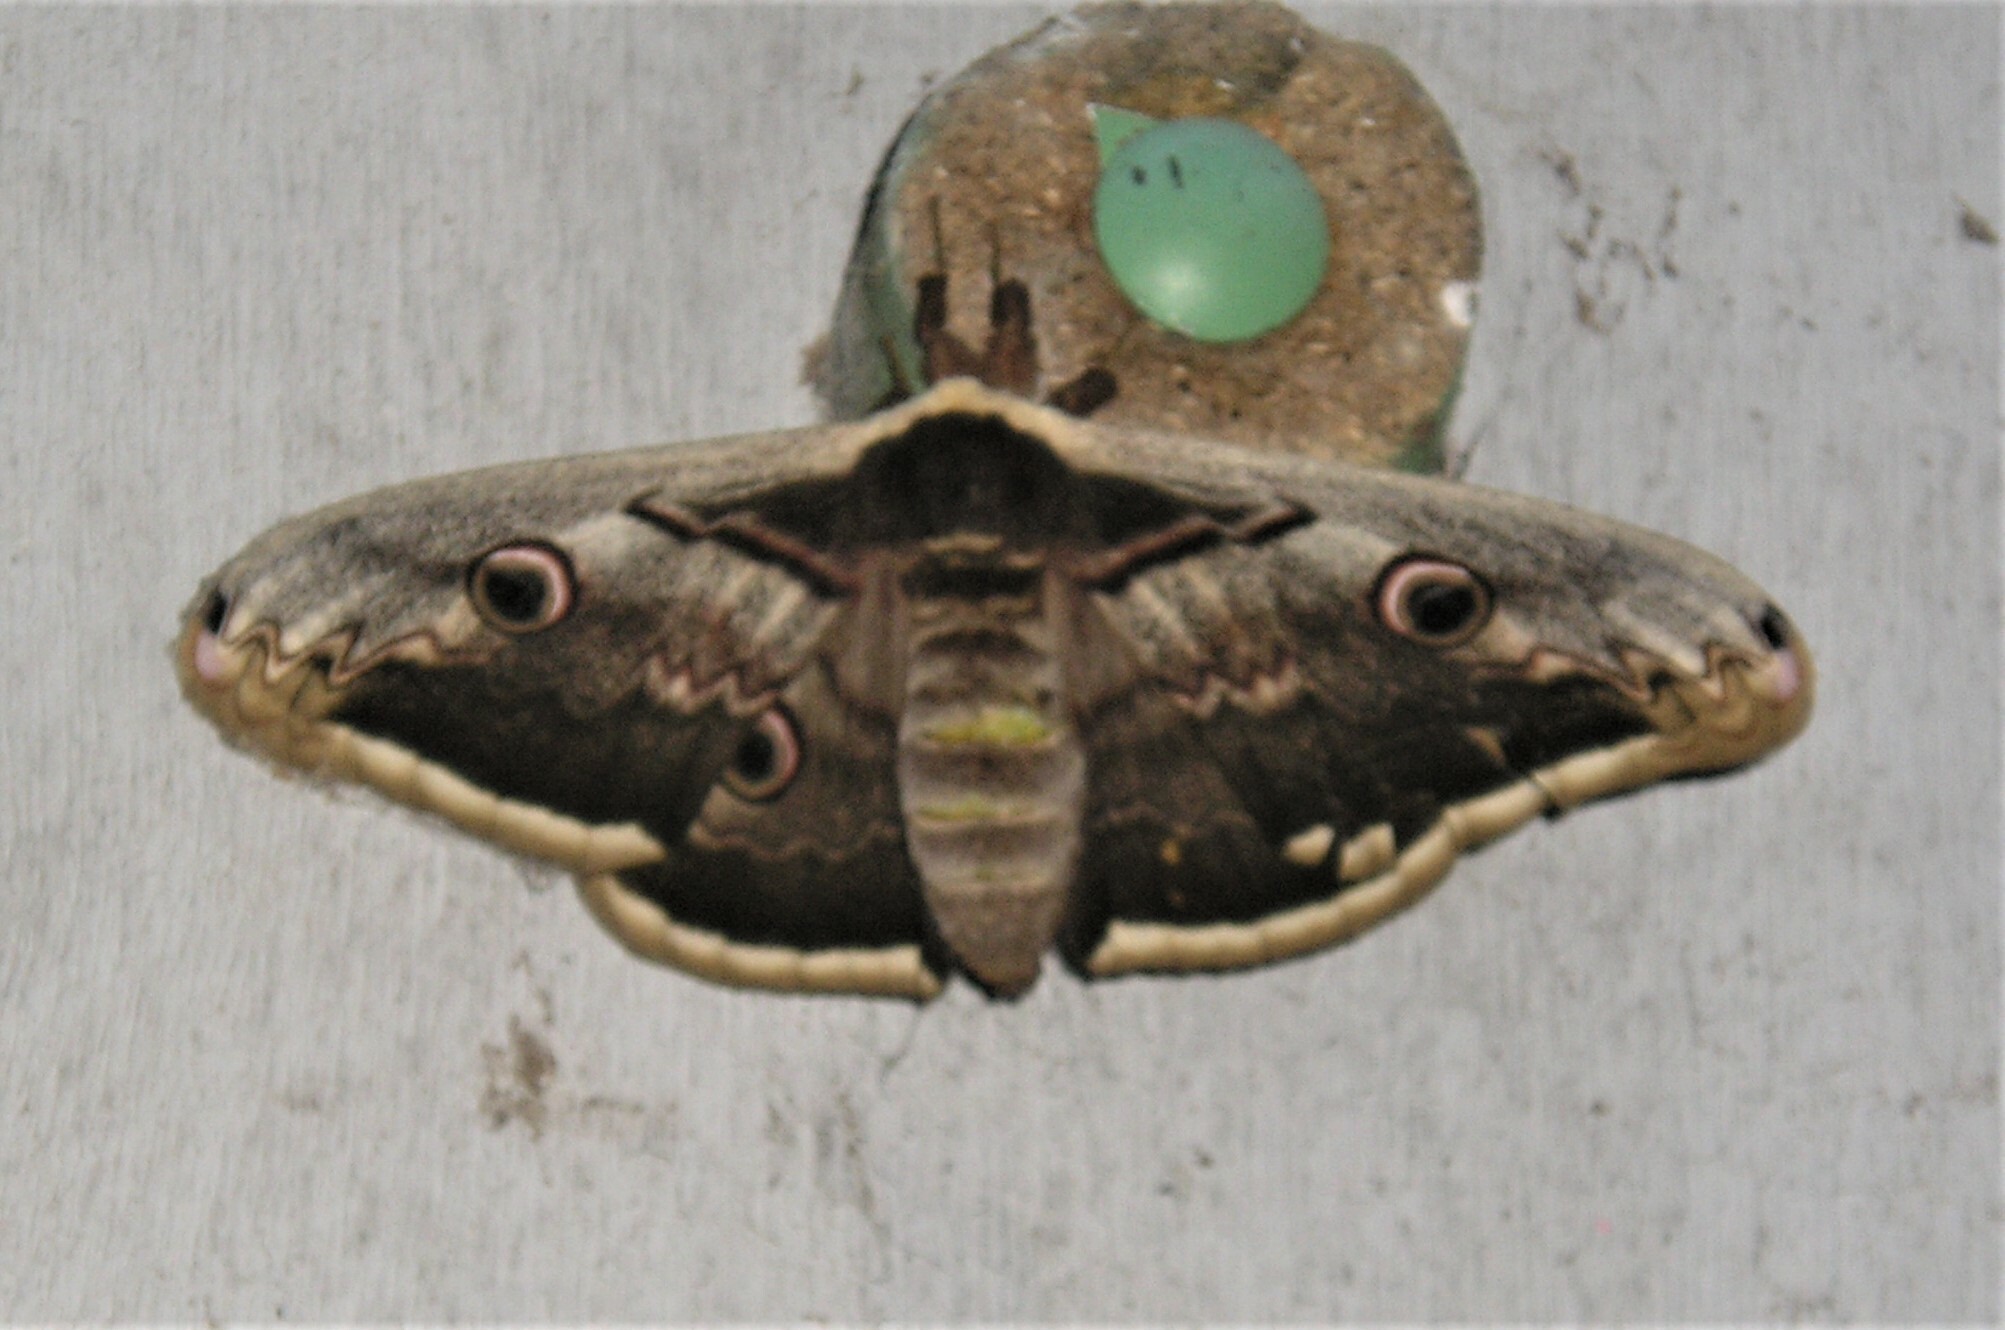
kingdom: Animalia
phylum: Arthropoda
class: Insecta
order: Lepidoptera
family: Saturniidae
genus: Saturnia
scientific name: Saturnia pyri
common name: Great peacock moth
